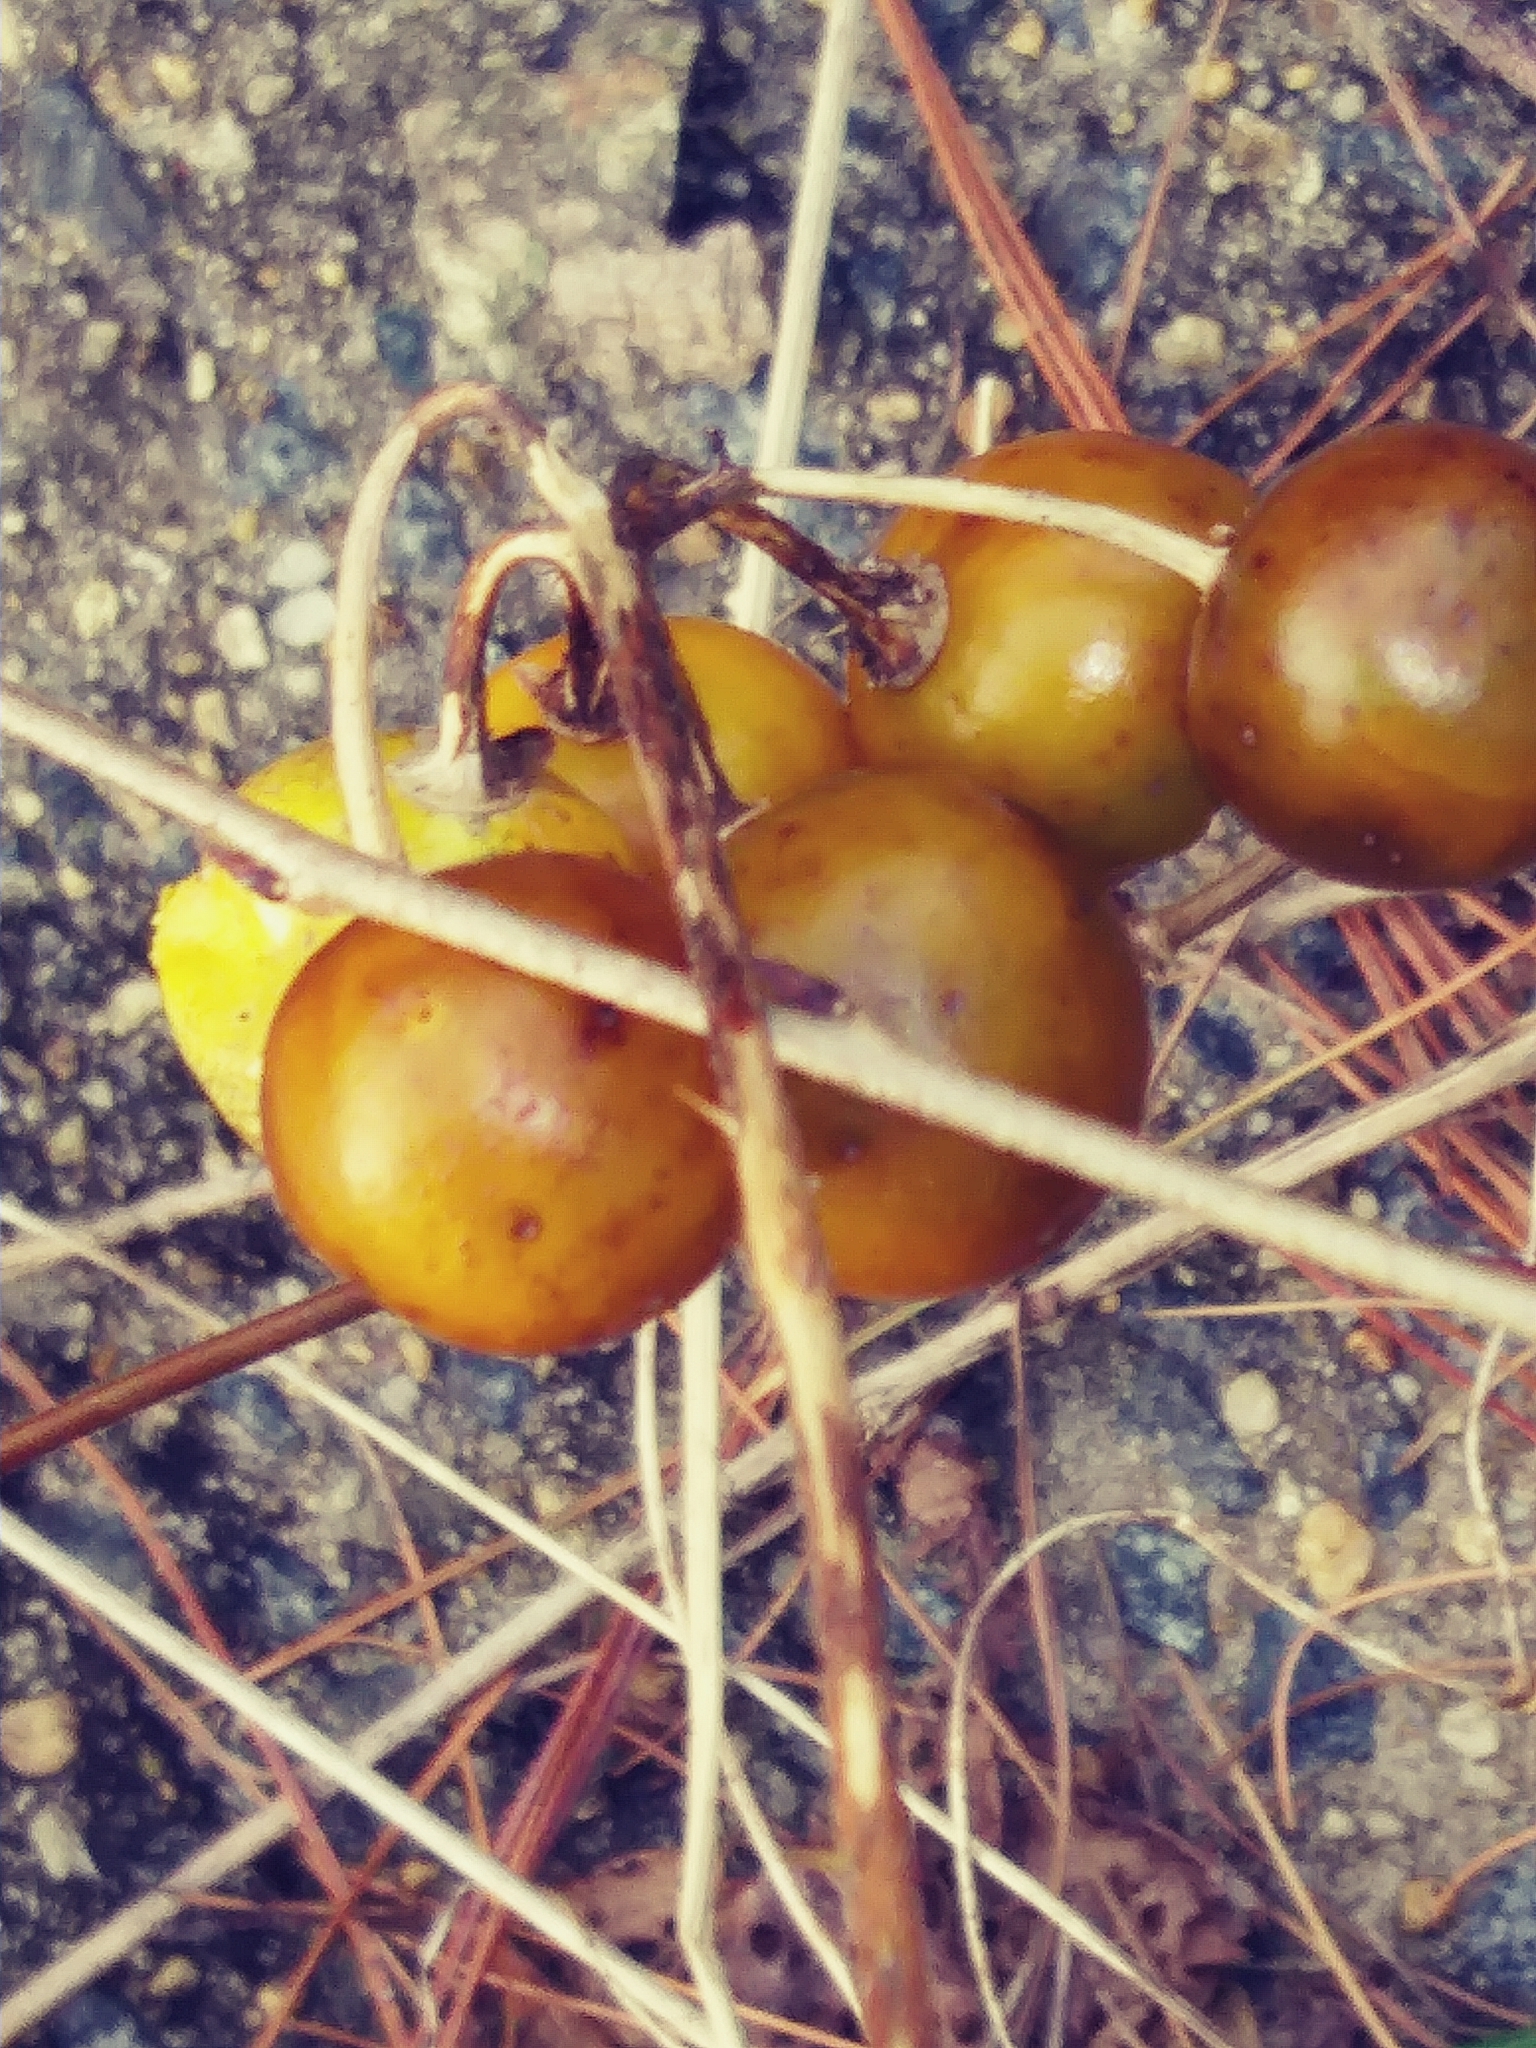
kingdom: Plantae
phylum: Tracheophyta
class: Magnoliopsida
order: Solanales
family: Solanaceae
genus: Solanum
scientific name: Solanum carolinense
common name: Horse-nettle
